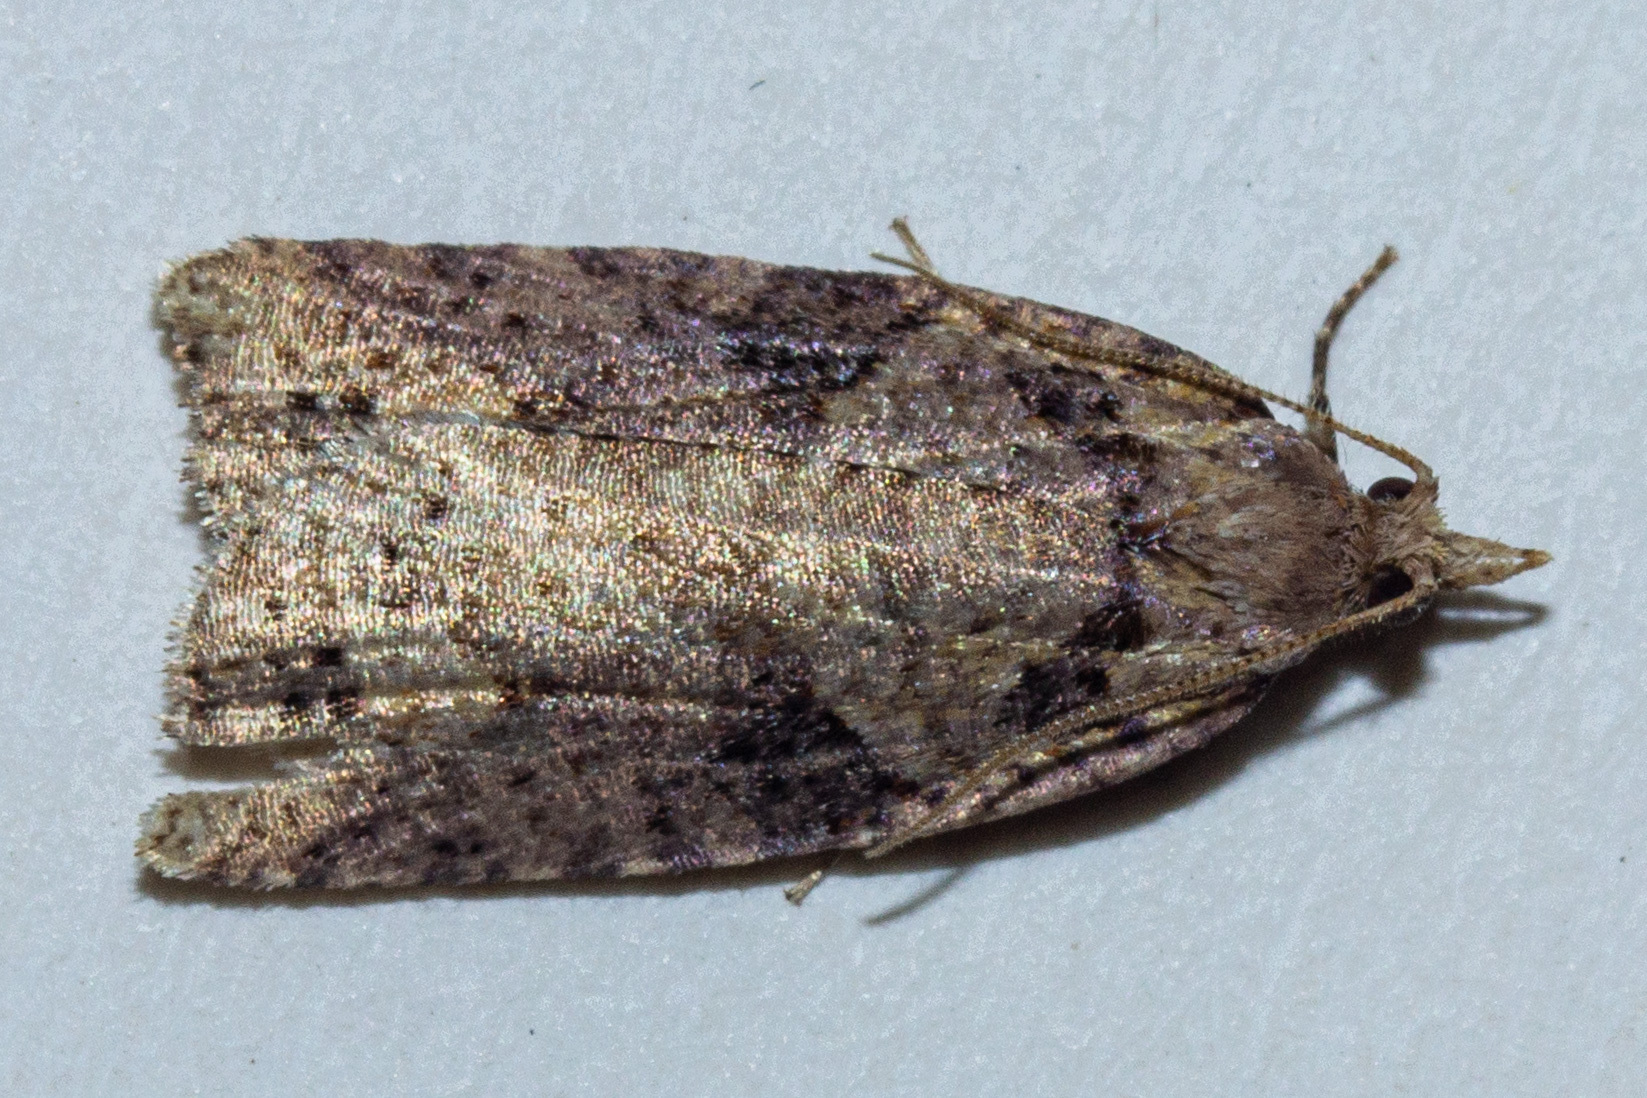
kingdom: Animalia
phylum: Arthropoda
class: Insecta
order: Lepidoptera
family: Tortricidae
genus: Ctenopseustis
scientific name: Ctenopseustis obliquana
